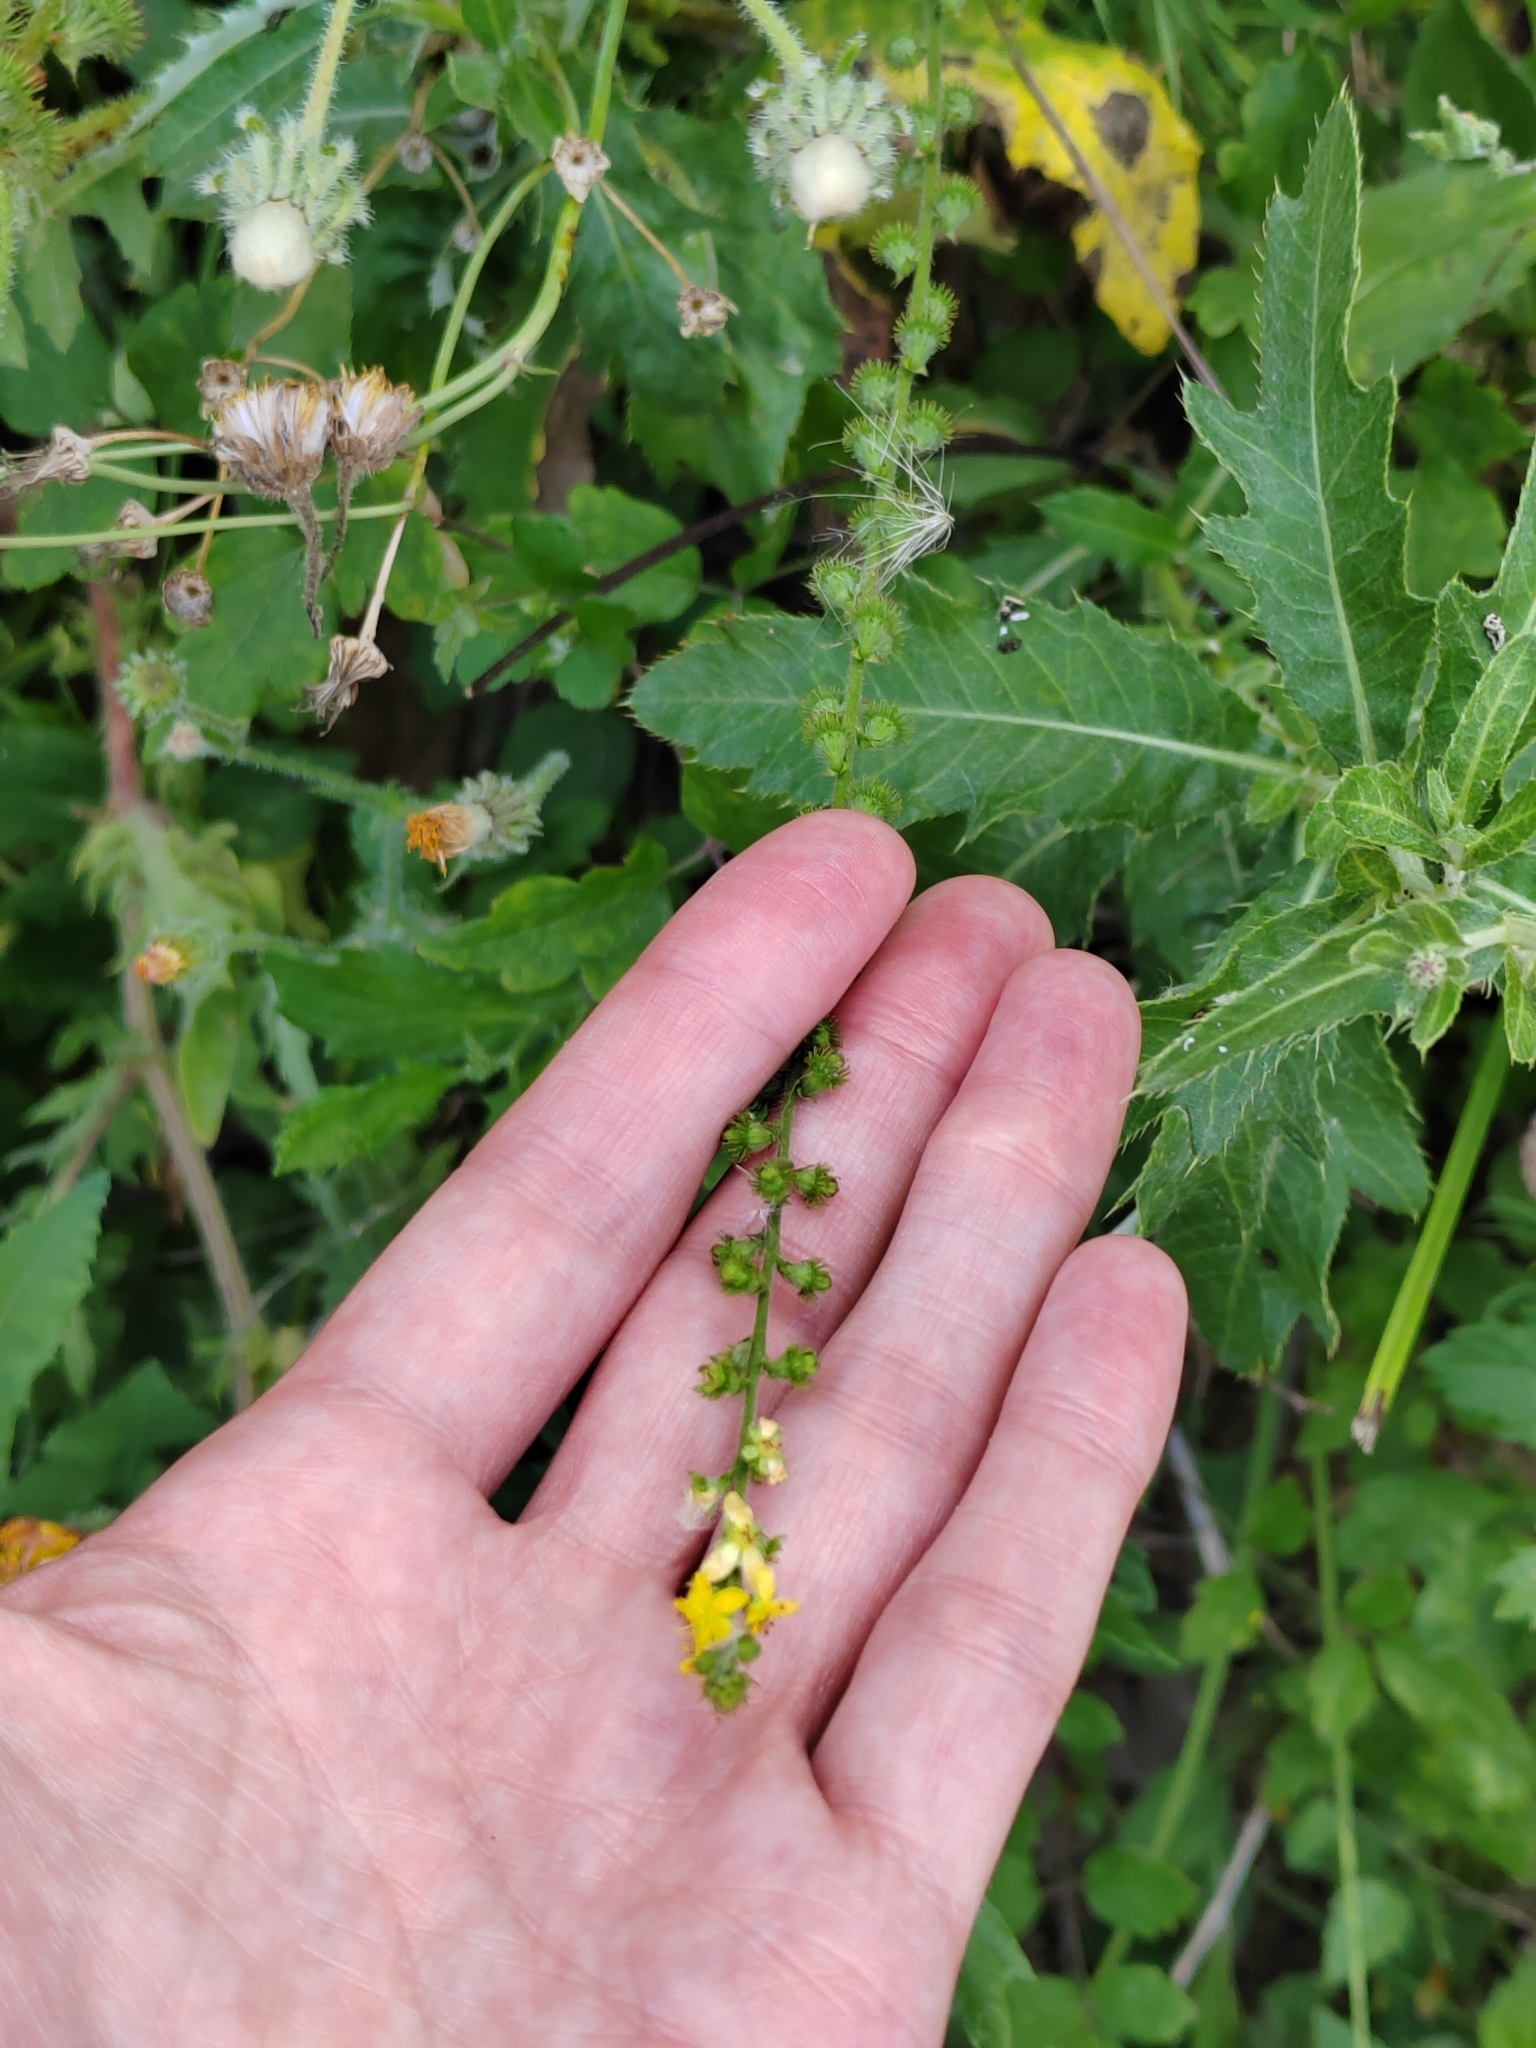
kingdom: Plantae
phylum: Tracheophyta
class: Magnoliopsida
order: Rosales
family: Rosaceae
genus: Agrimonia
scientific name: Agrimonia eupatoria
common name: Agrimony
